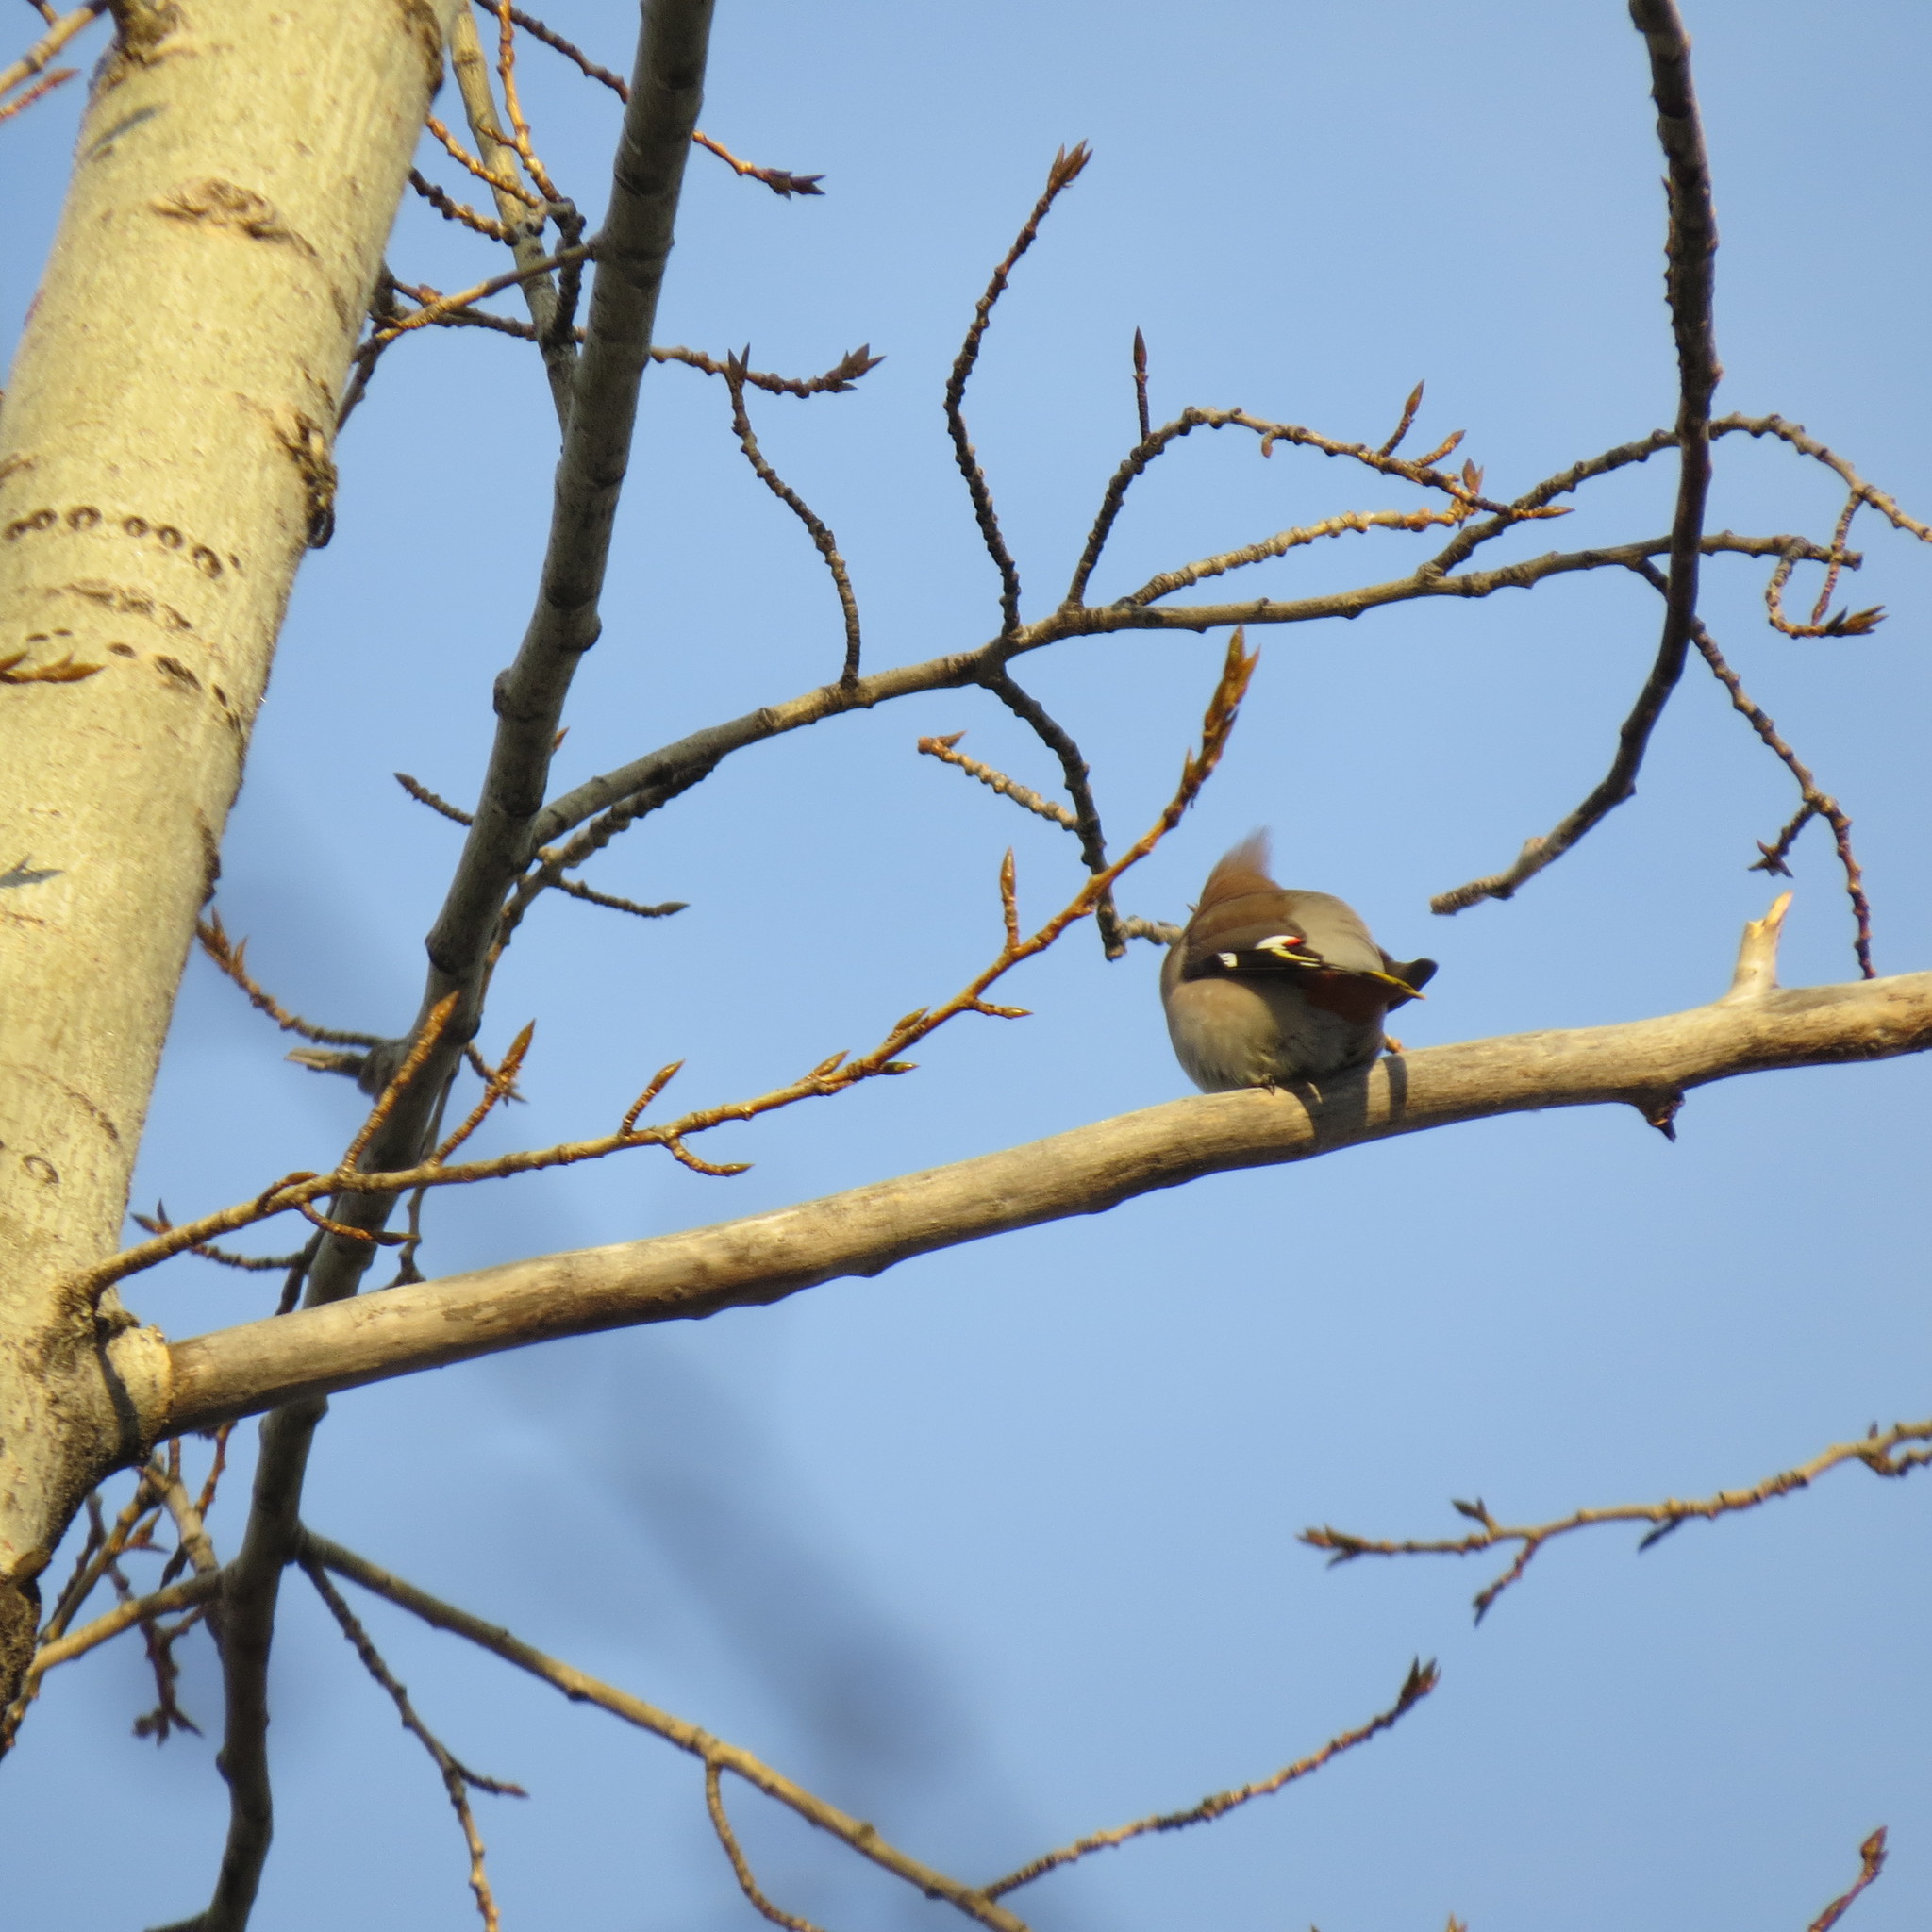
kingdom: Animalia
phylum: Chordata
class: Aves
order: Passeriformes
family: Bombycillidae
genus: Bombycilla
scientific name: Bombycilla garrulus
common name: Bohemian waxwing
